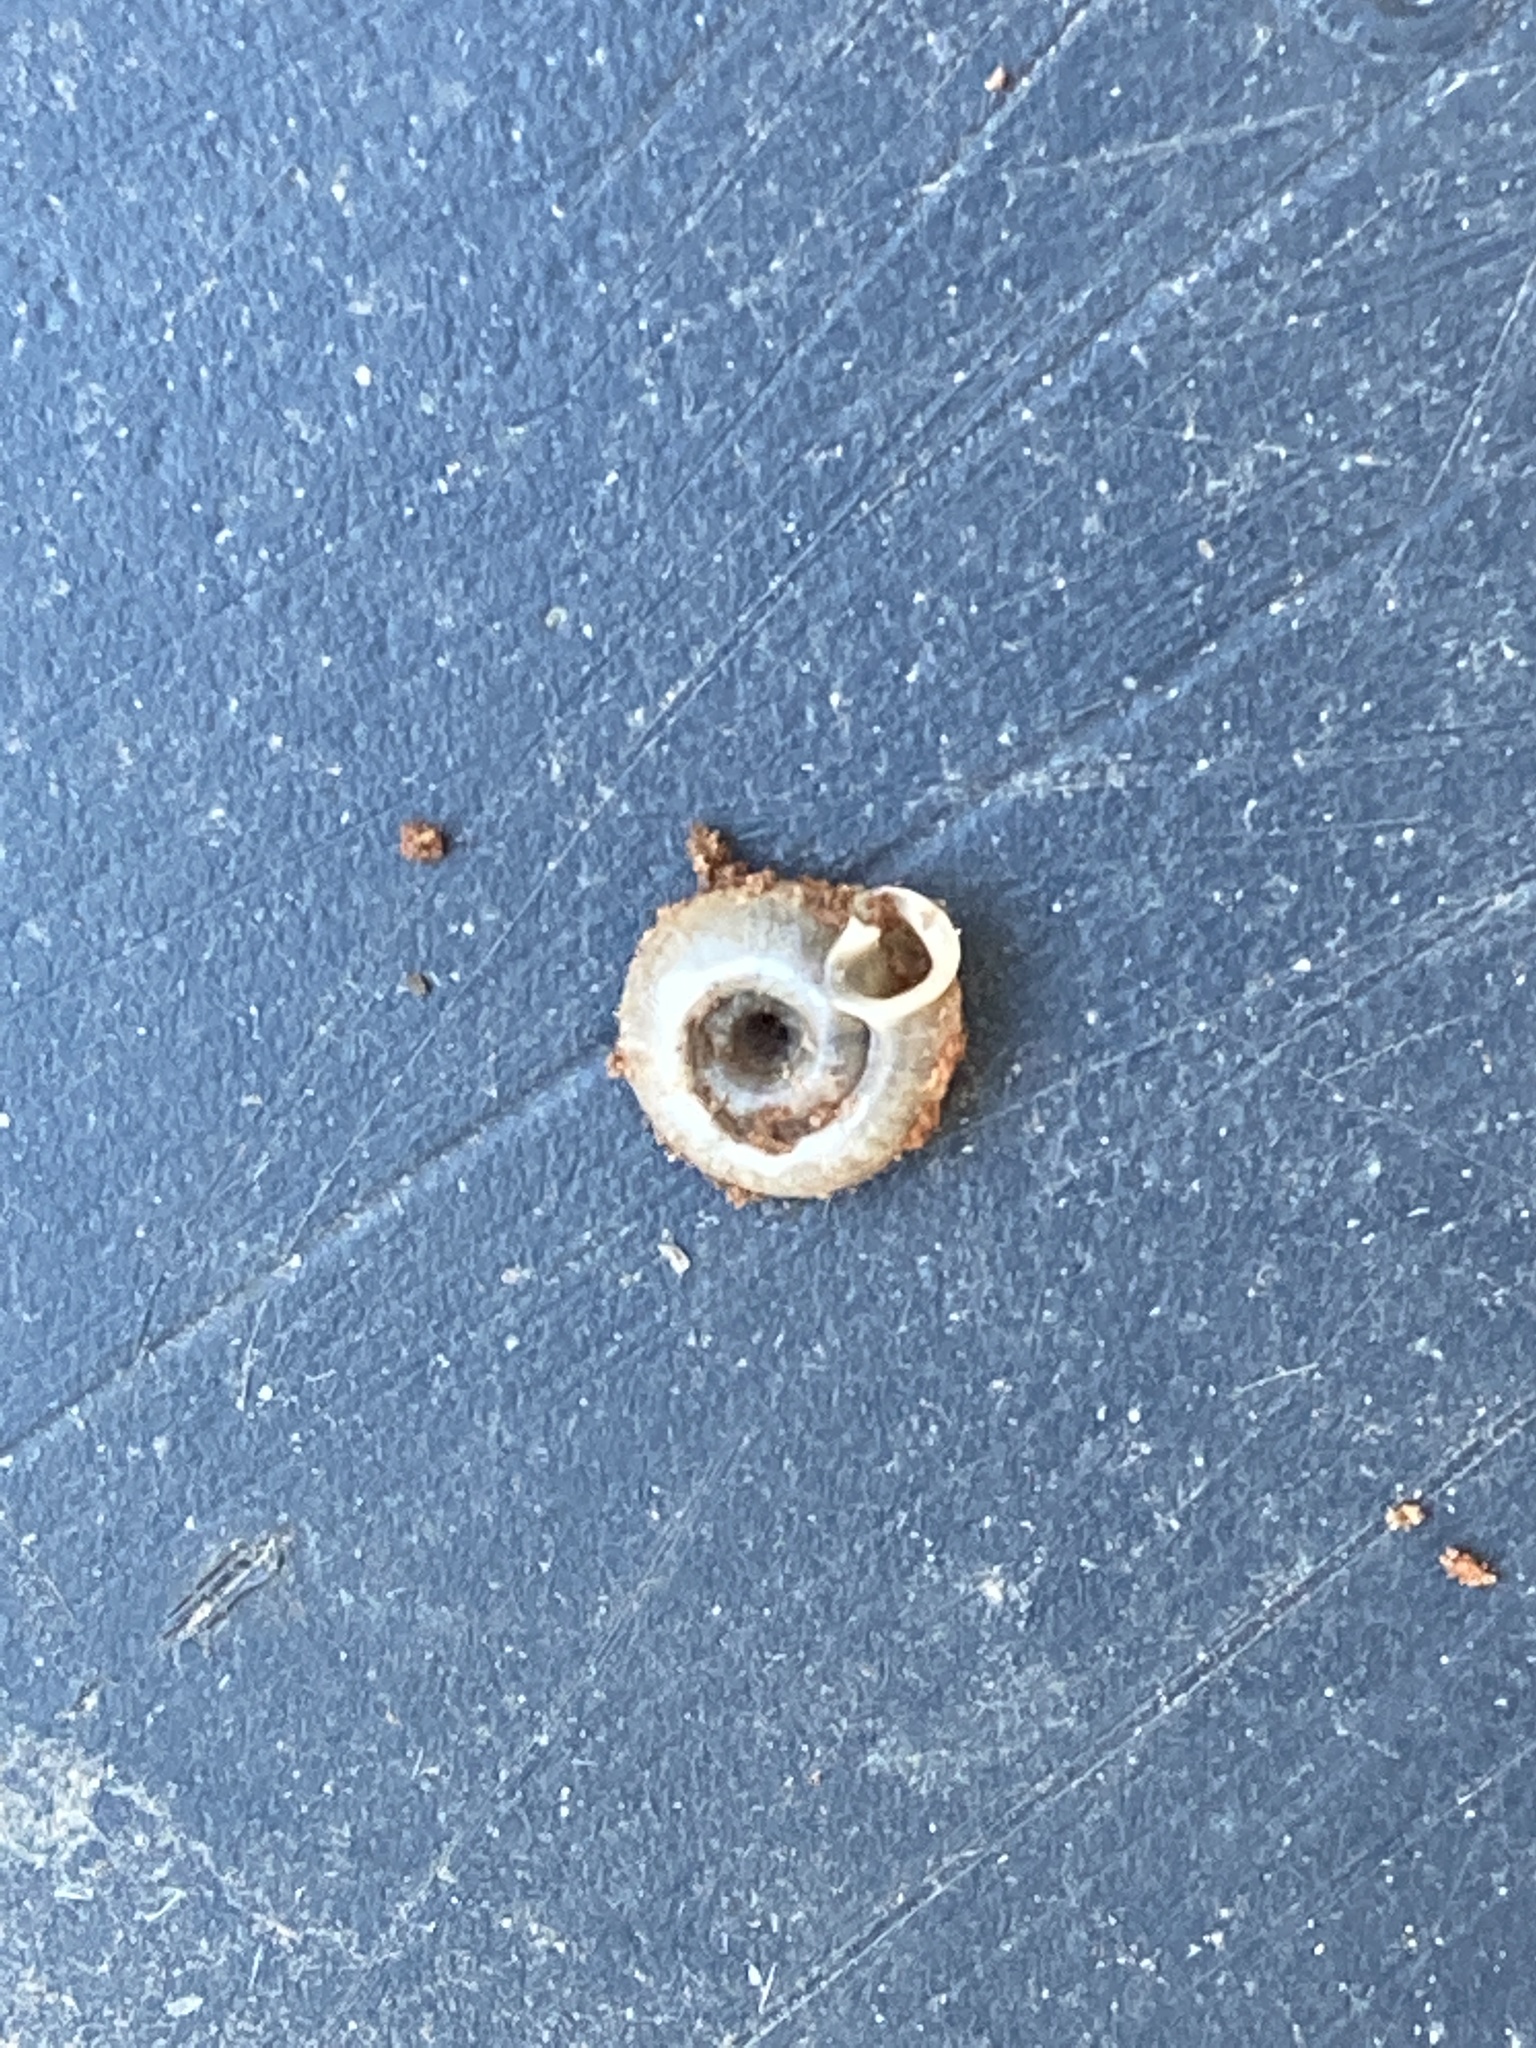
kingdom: Animalia
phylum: Mollusca
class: Gastropoda
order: Stylommatophora
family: Polygyridae
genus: Polygyra
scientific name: Polygyra cereolus
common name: Southern flatcone snail
